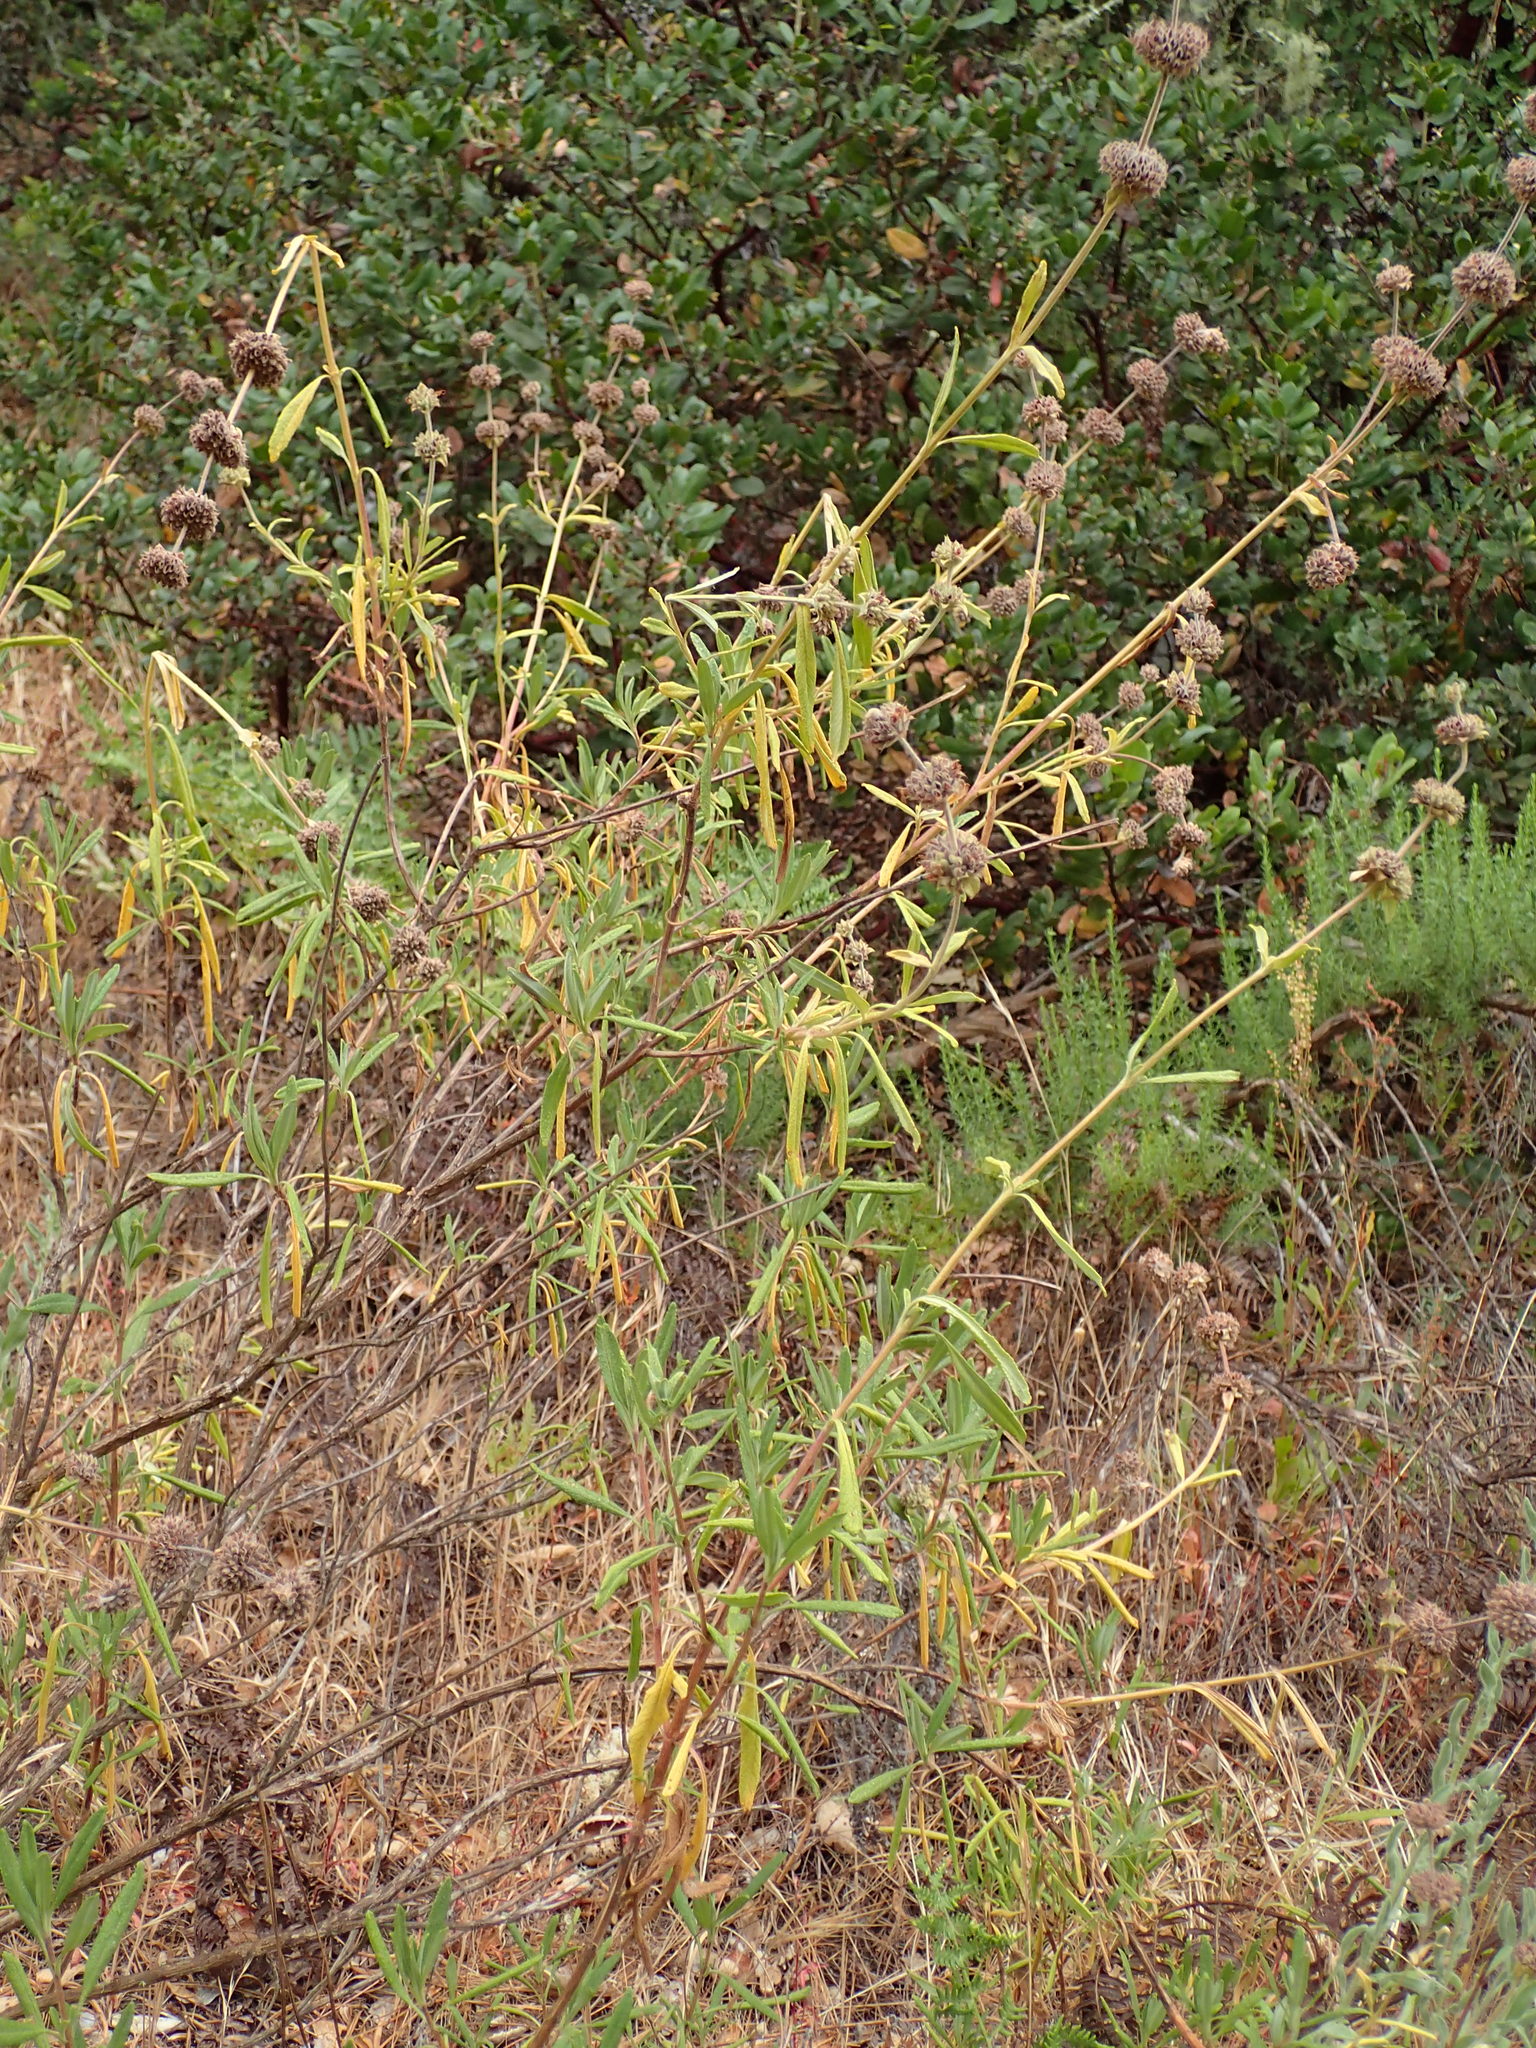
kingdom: Plantae
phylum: Tracheophyta
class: Magnoliopsida
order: Lamiales
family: Lamiaceae
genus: Salvia
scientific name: Salvia mellifera
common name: Black sage
